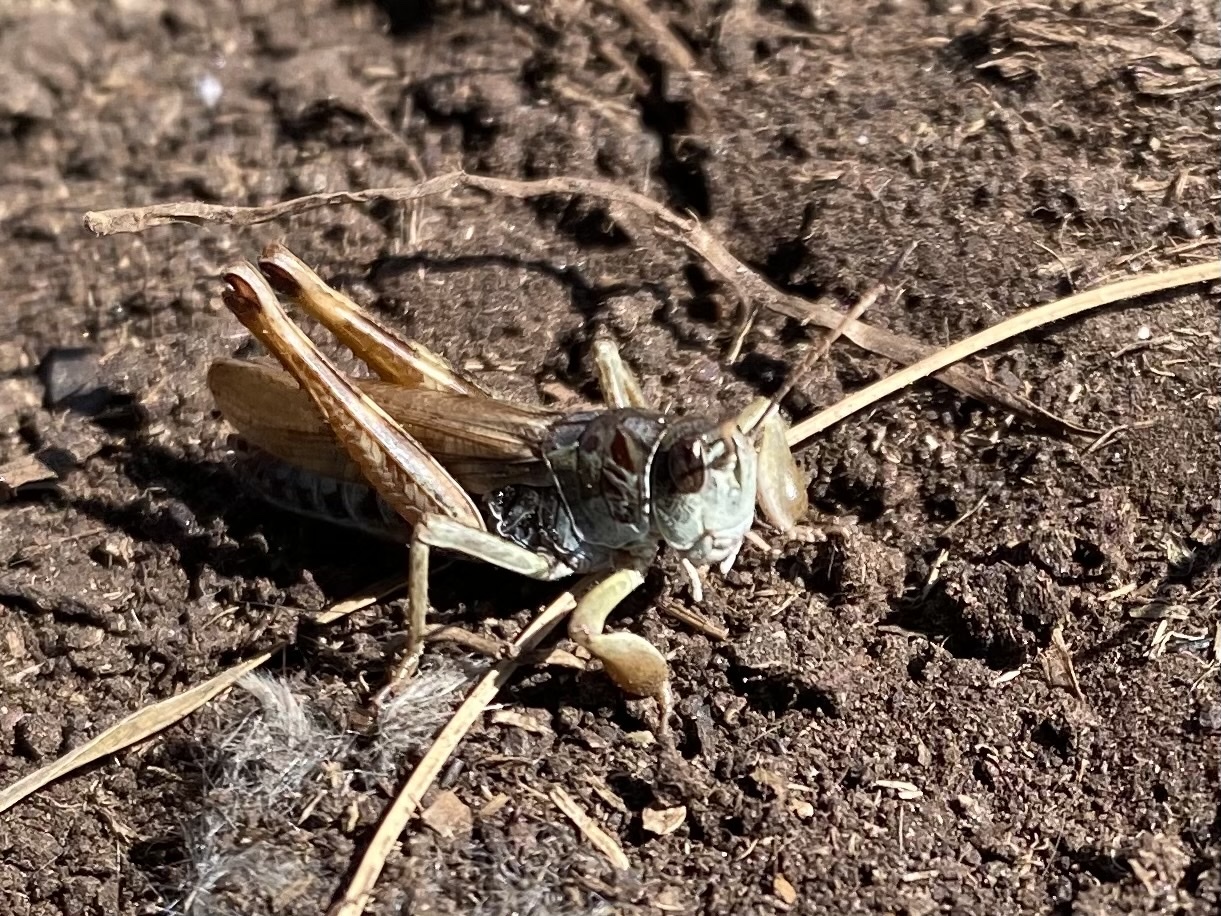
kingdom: Animalia
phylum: Arthropoda
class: Insecta
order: Orthoptera
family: Acrididae
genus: Gomphocerus
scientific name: Gomphocerus sibiricus
